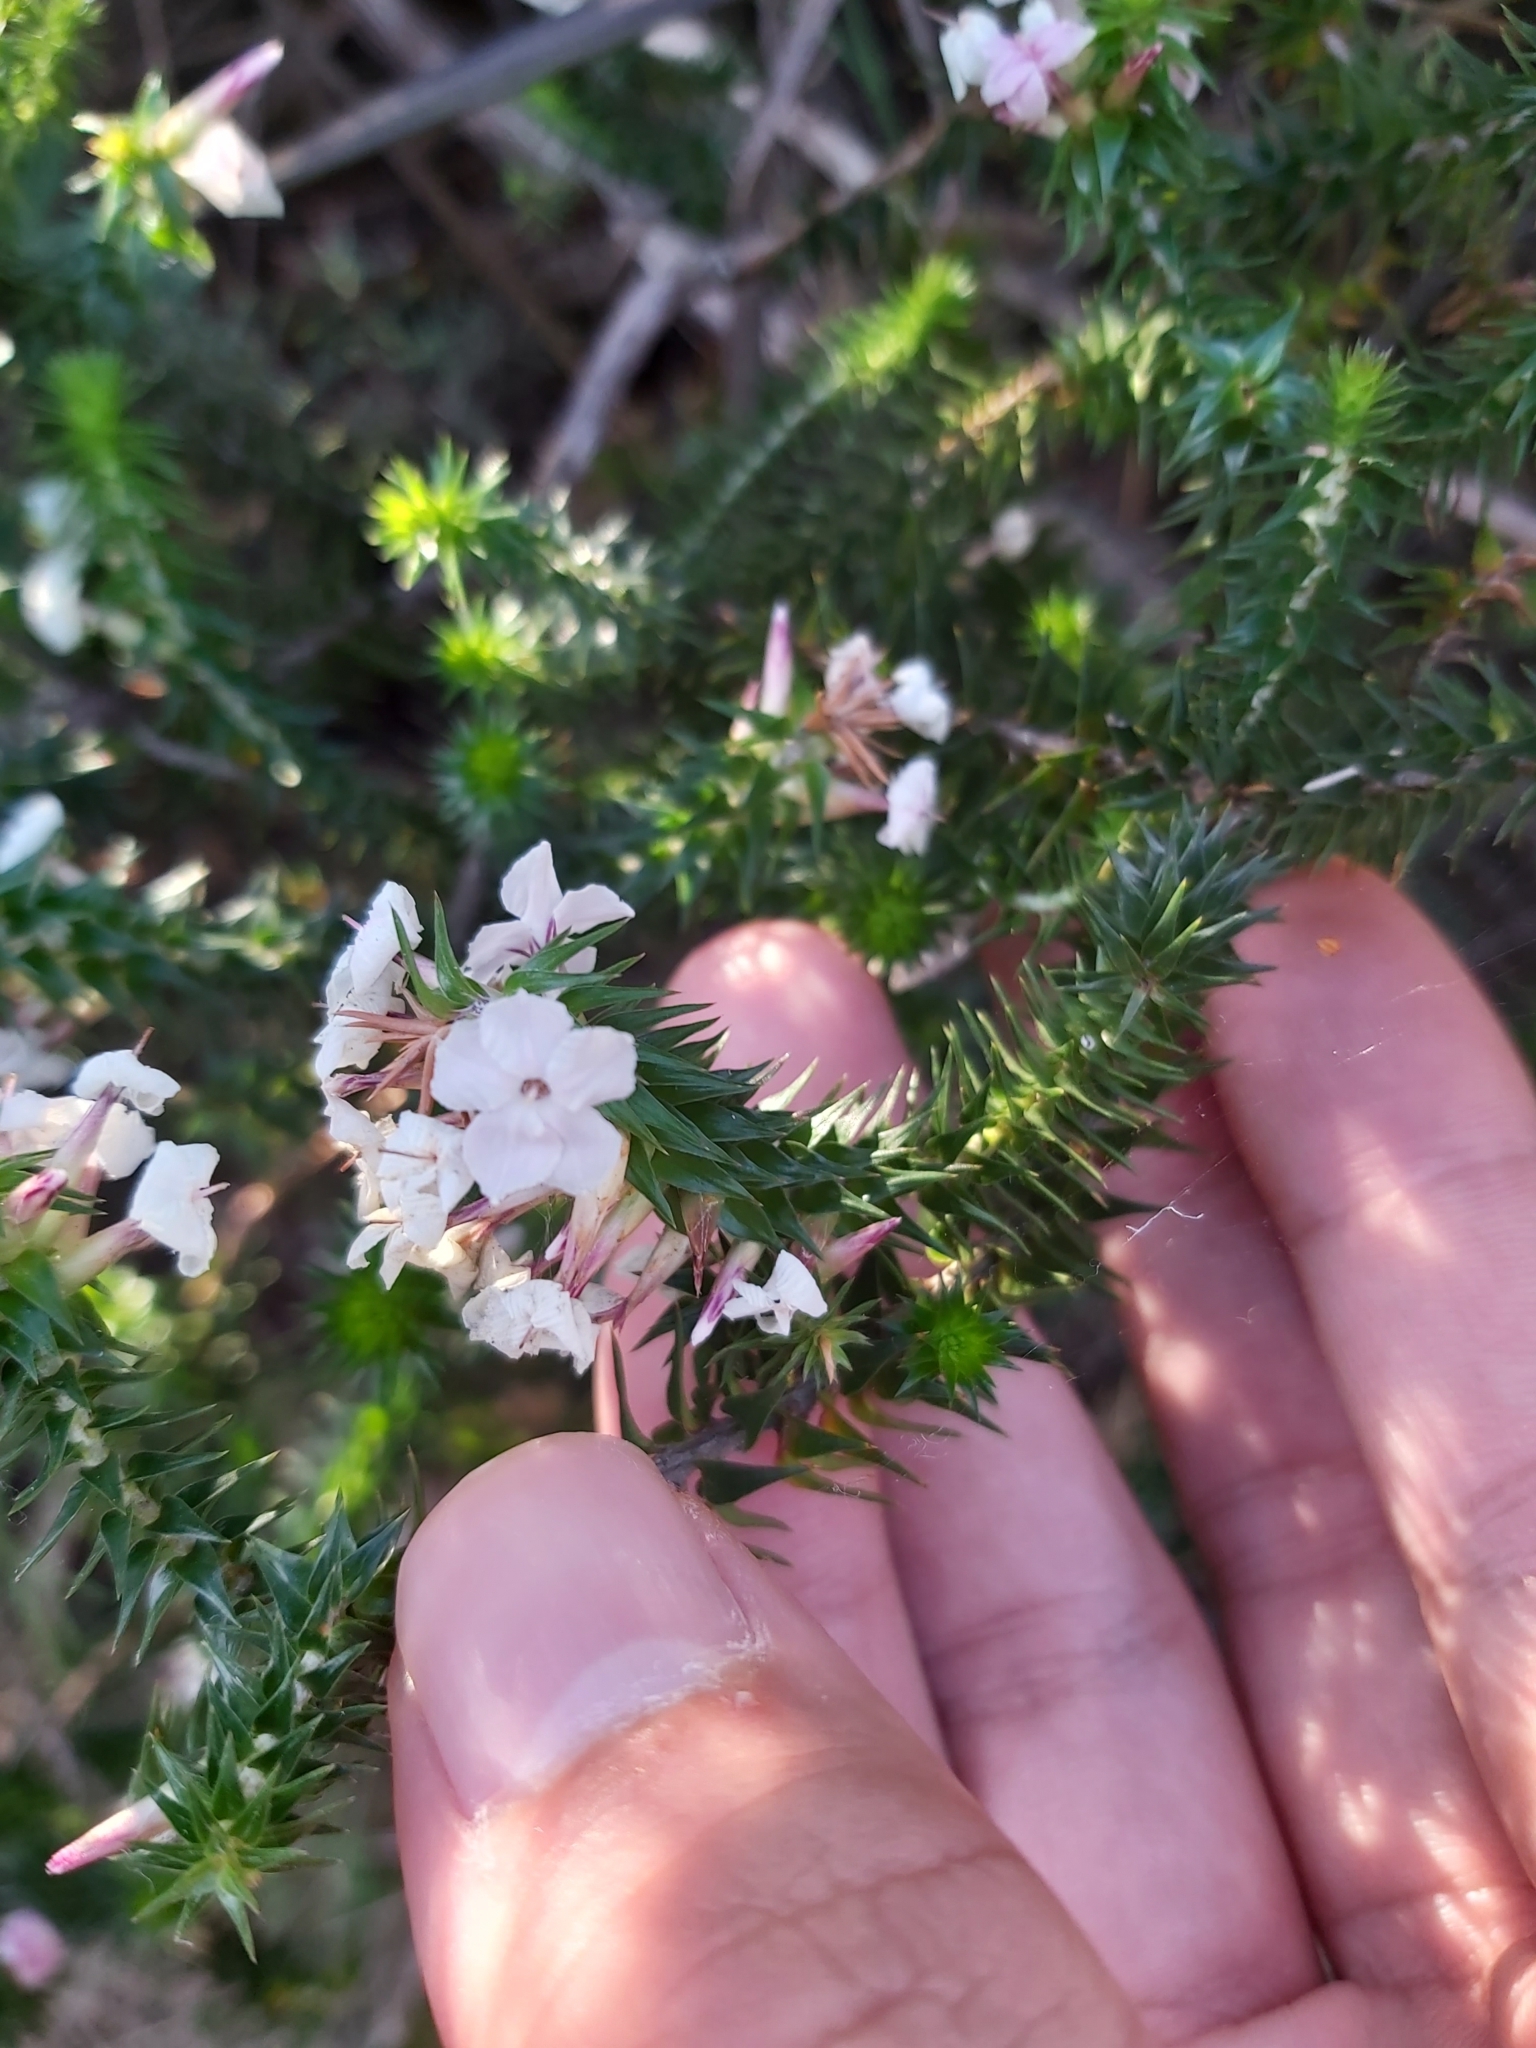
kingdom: Plantae
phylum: Tracheophyta
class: Magnoliopsida
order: Ericales
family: Ericaceae
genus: Woollsia
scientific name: Woollsia pungens
